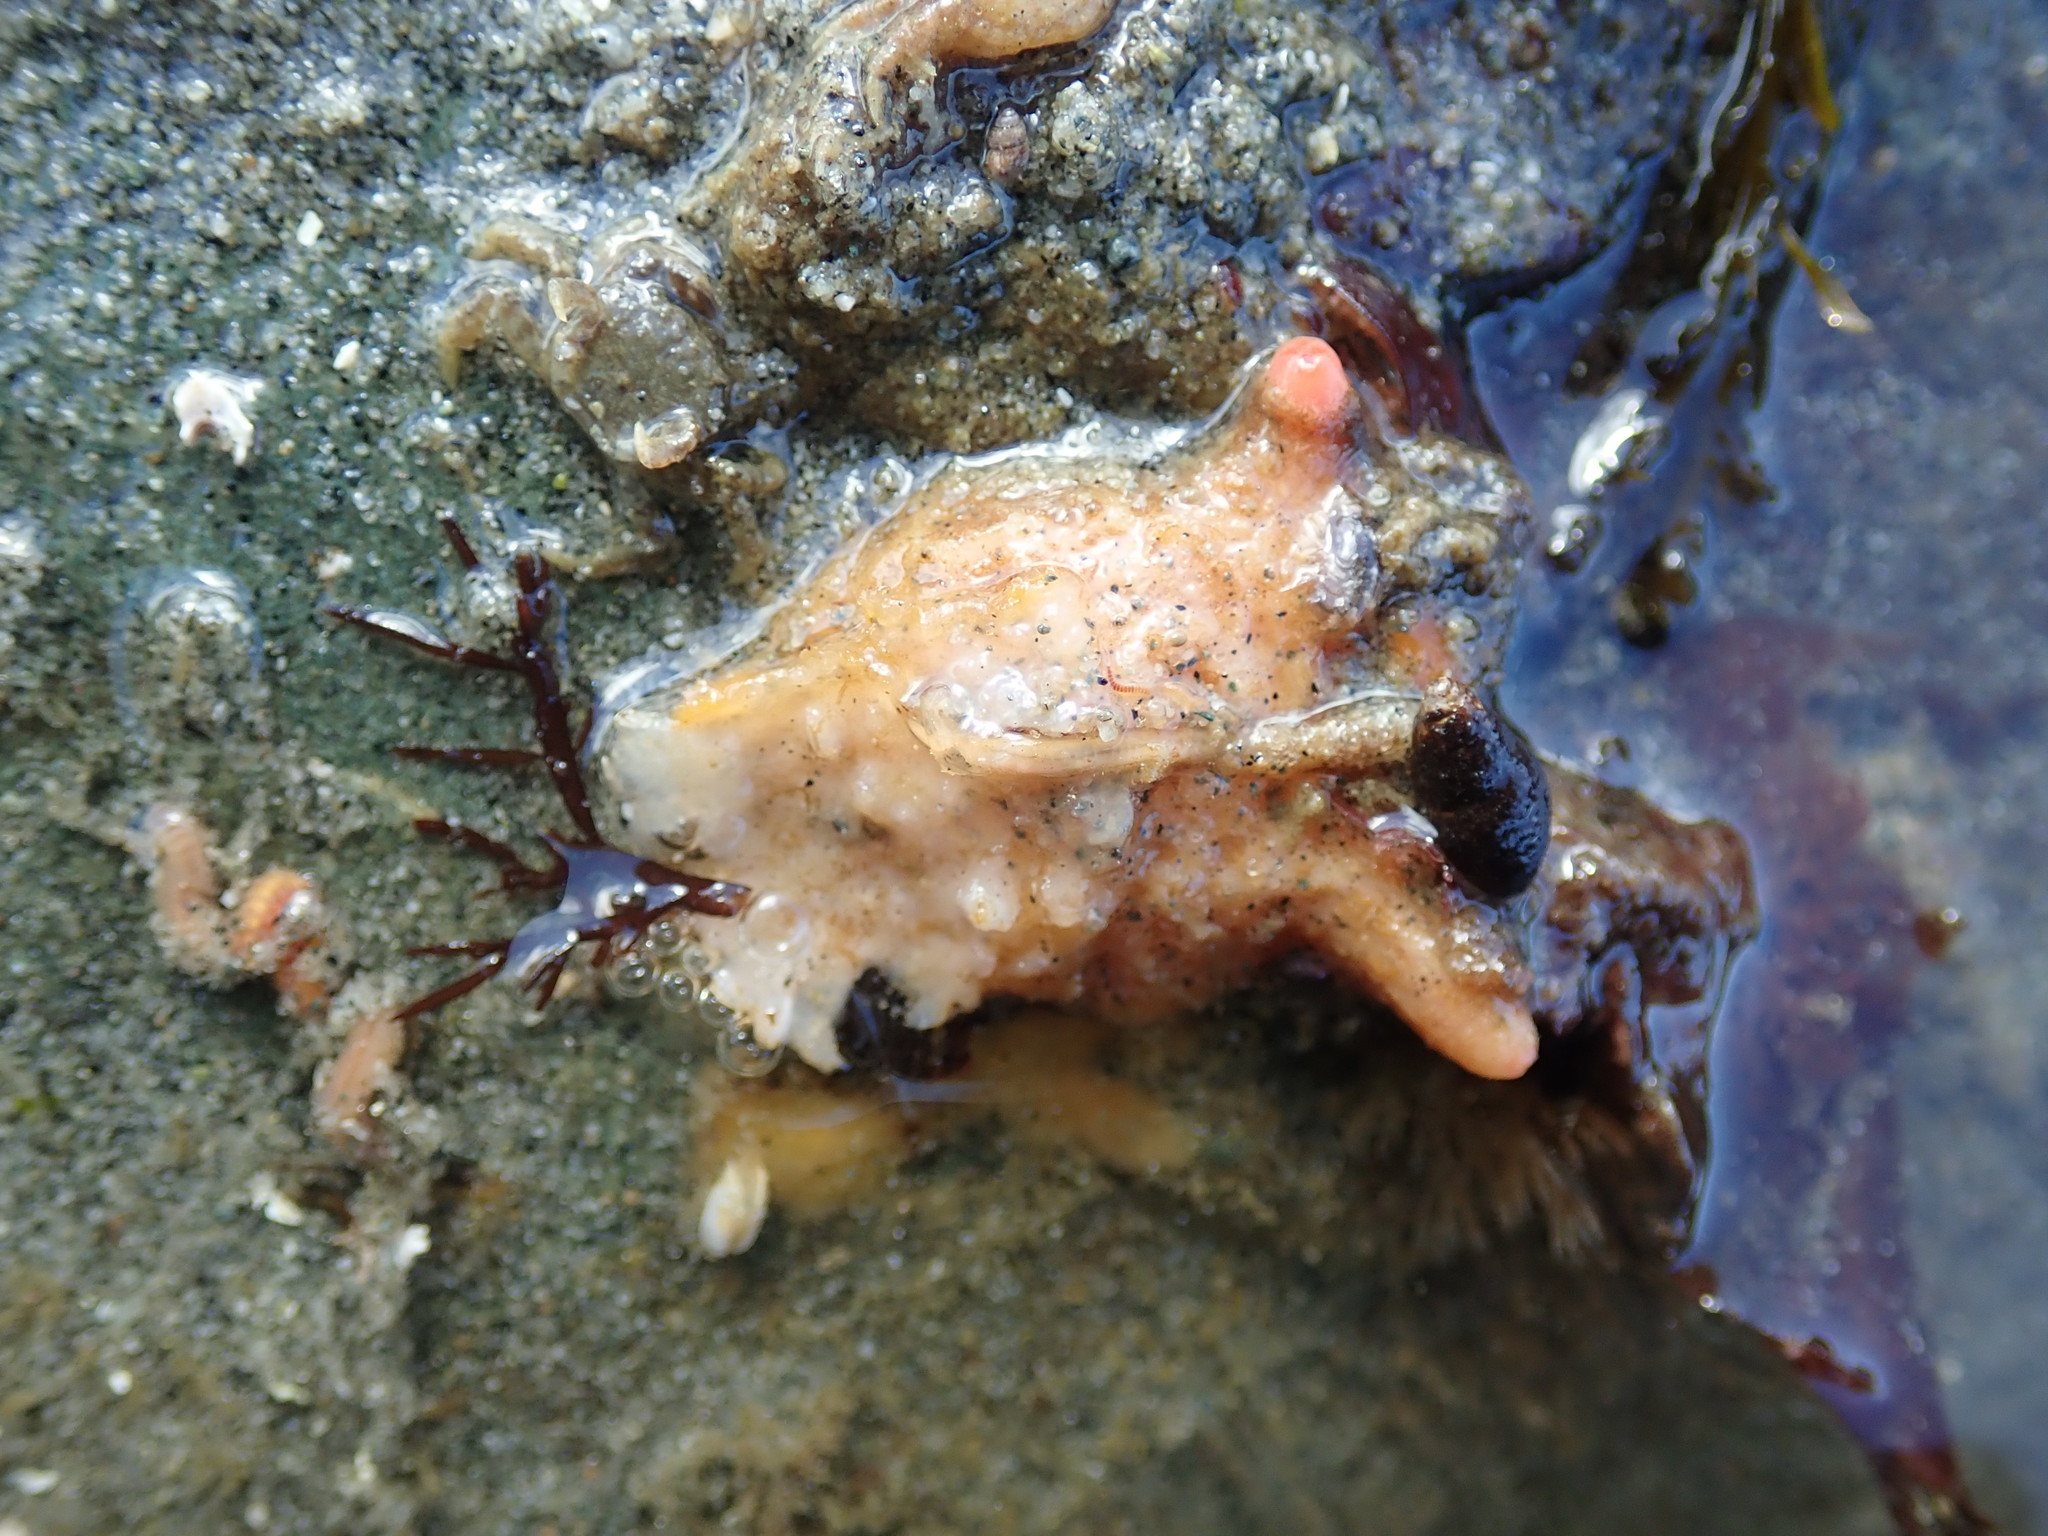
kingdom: Animalia
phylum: Chordata
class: Ascidiacea
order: Stolidobranchia
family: Pyuridae
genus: Pyura
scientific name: Pyura haustor
